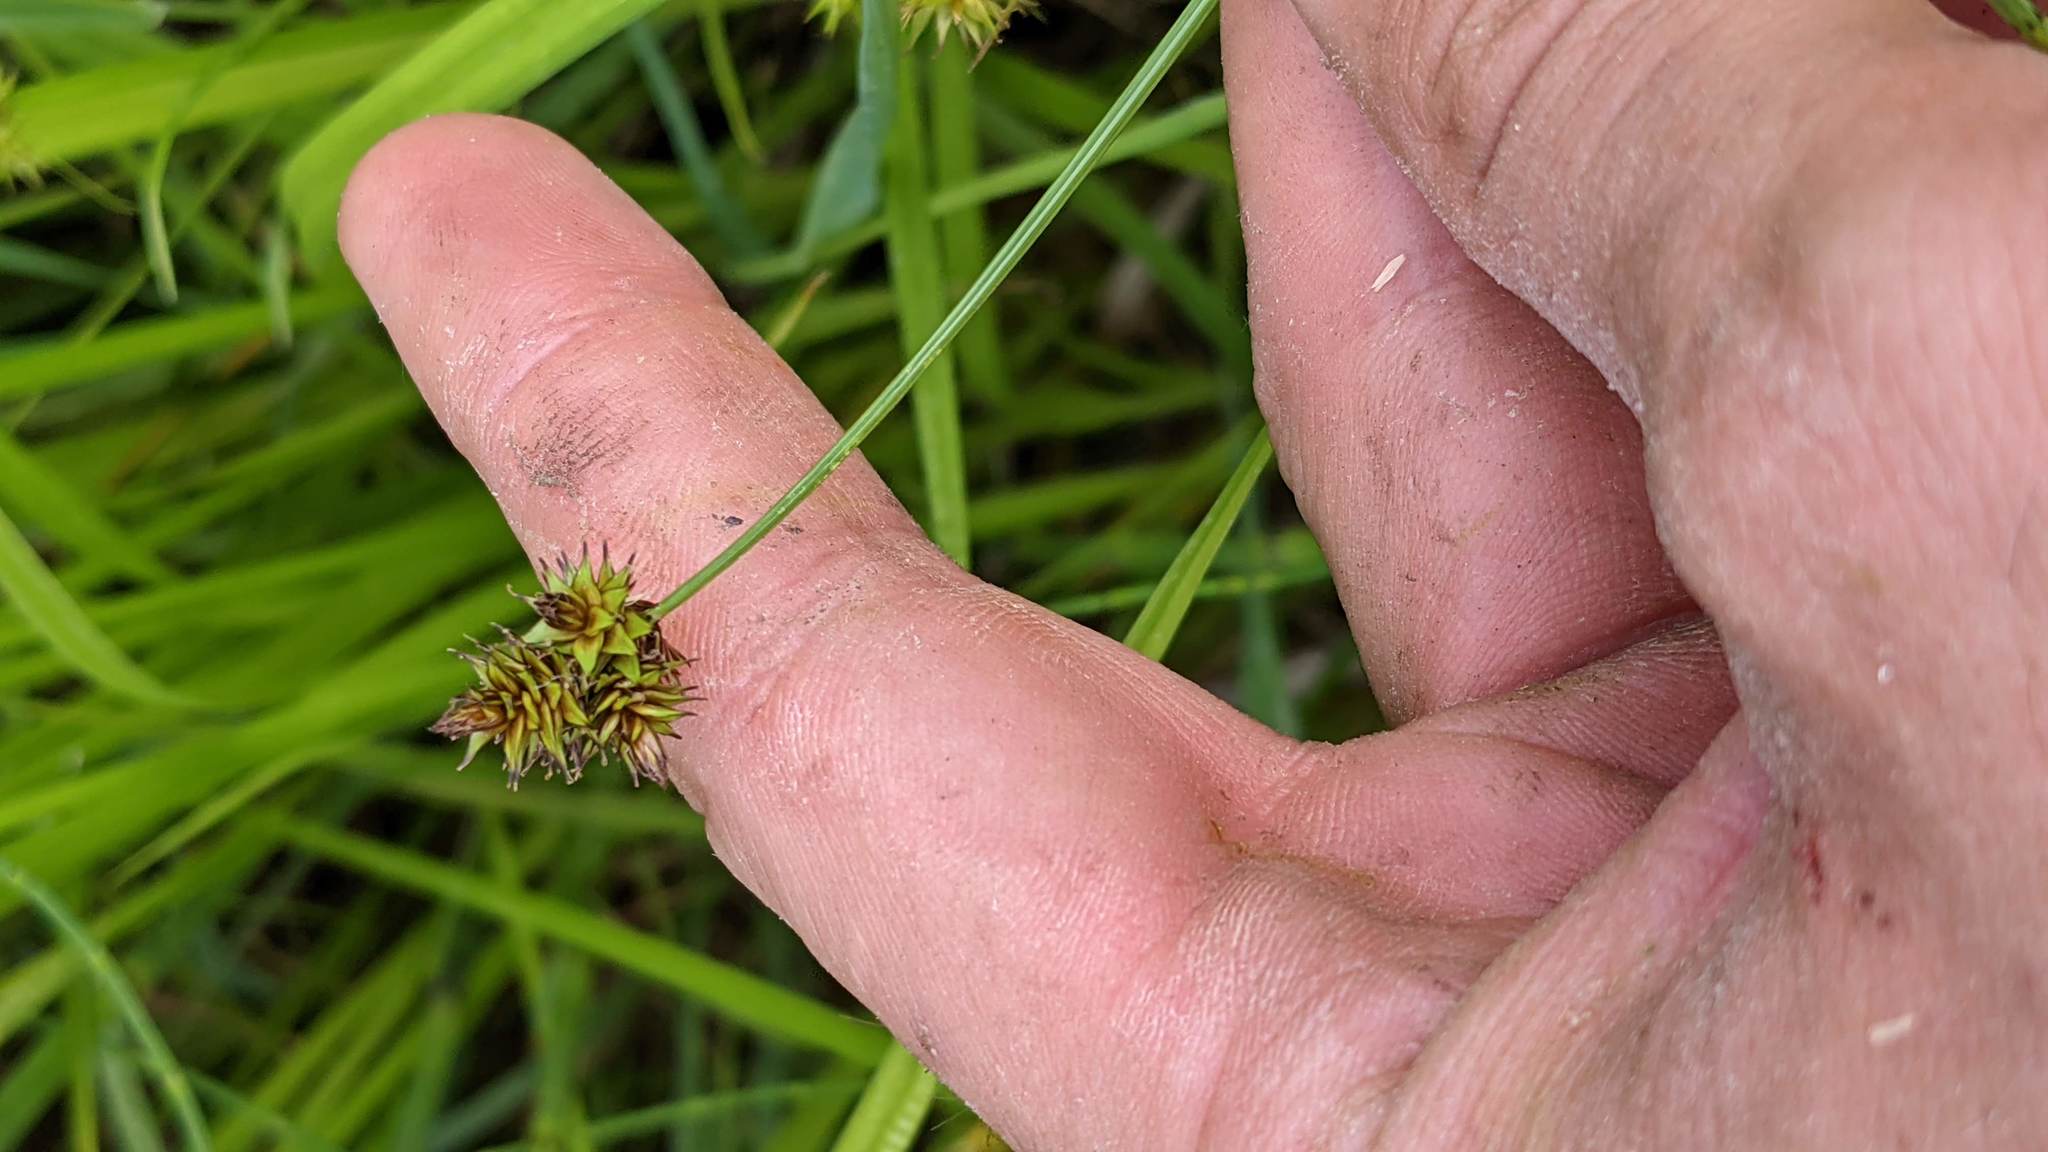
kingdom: Plantae
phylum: Tracheophyta
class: Liliopsida
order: Poales
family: Cyperaceae
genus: Carex
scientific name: Carex pachystachya
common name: Chamisso's sedge
